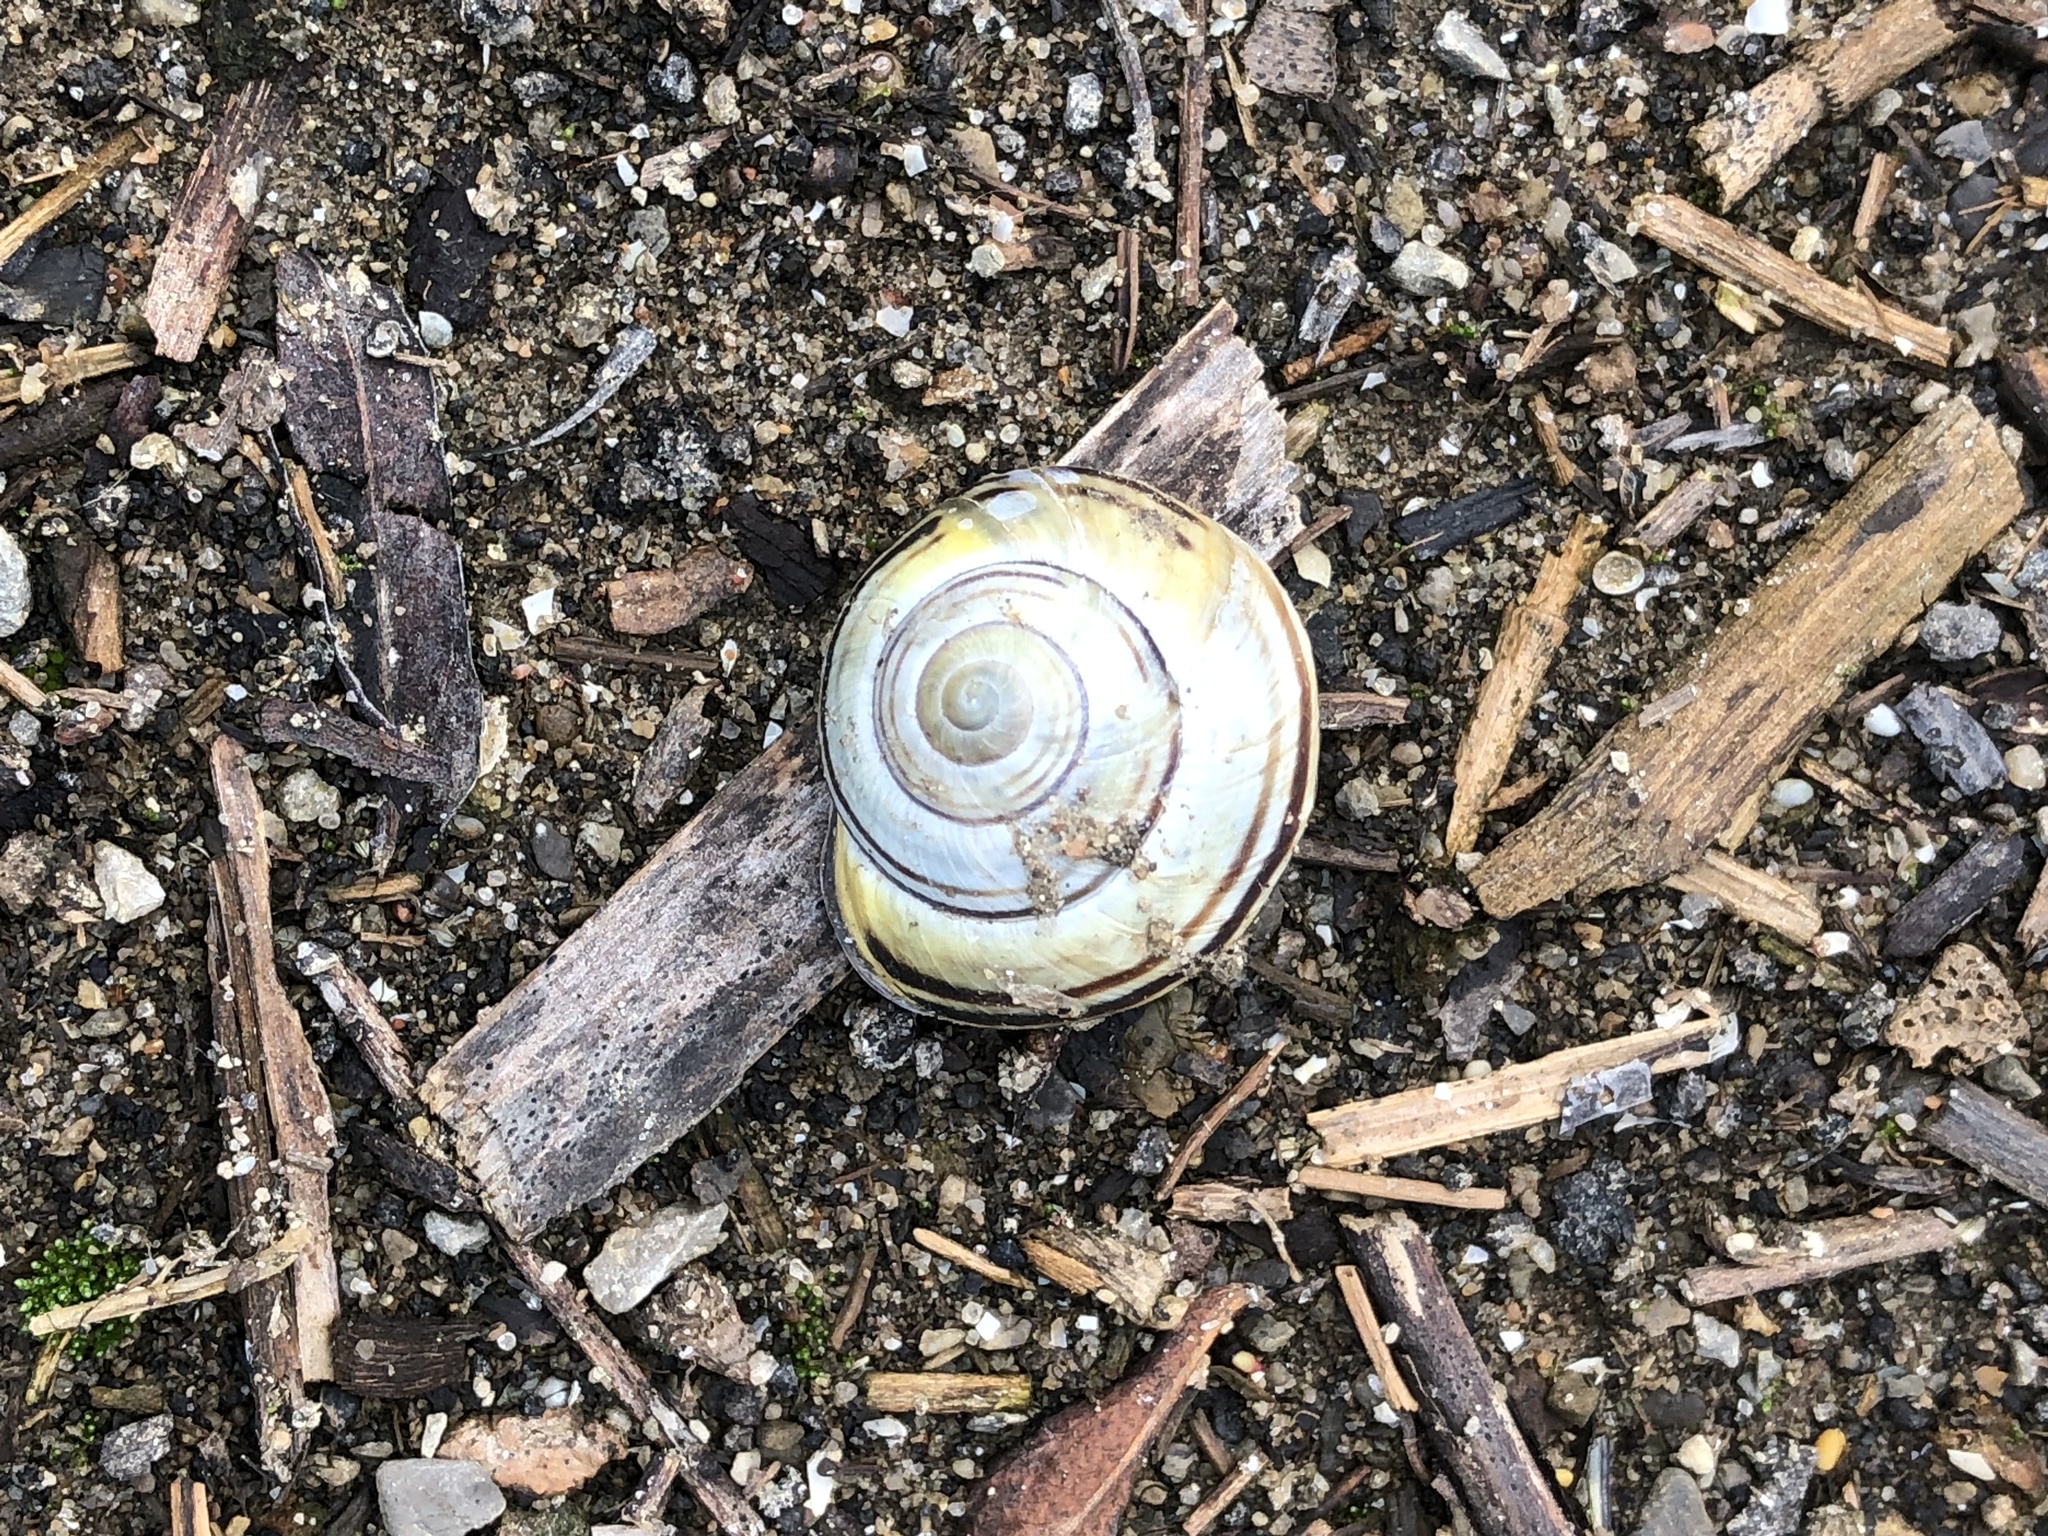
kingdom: Animalia
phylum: Mollusca
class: Gastropoda
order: Stylommatophora
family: Helicidae
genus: Cepaea
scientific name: Cepaea nemoralis
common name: Grovesnail
